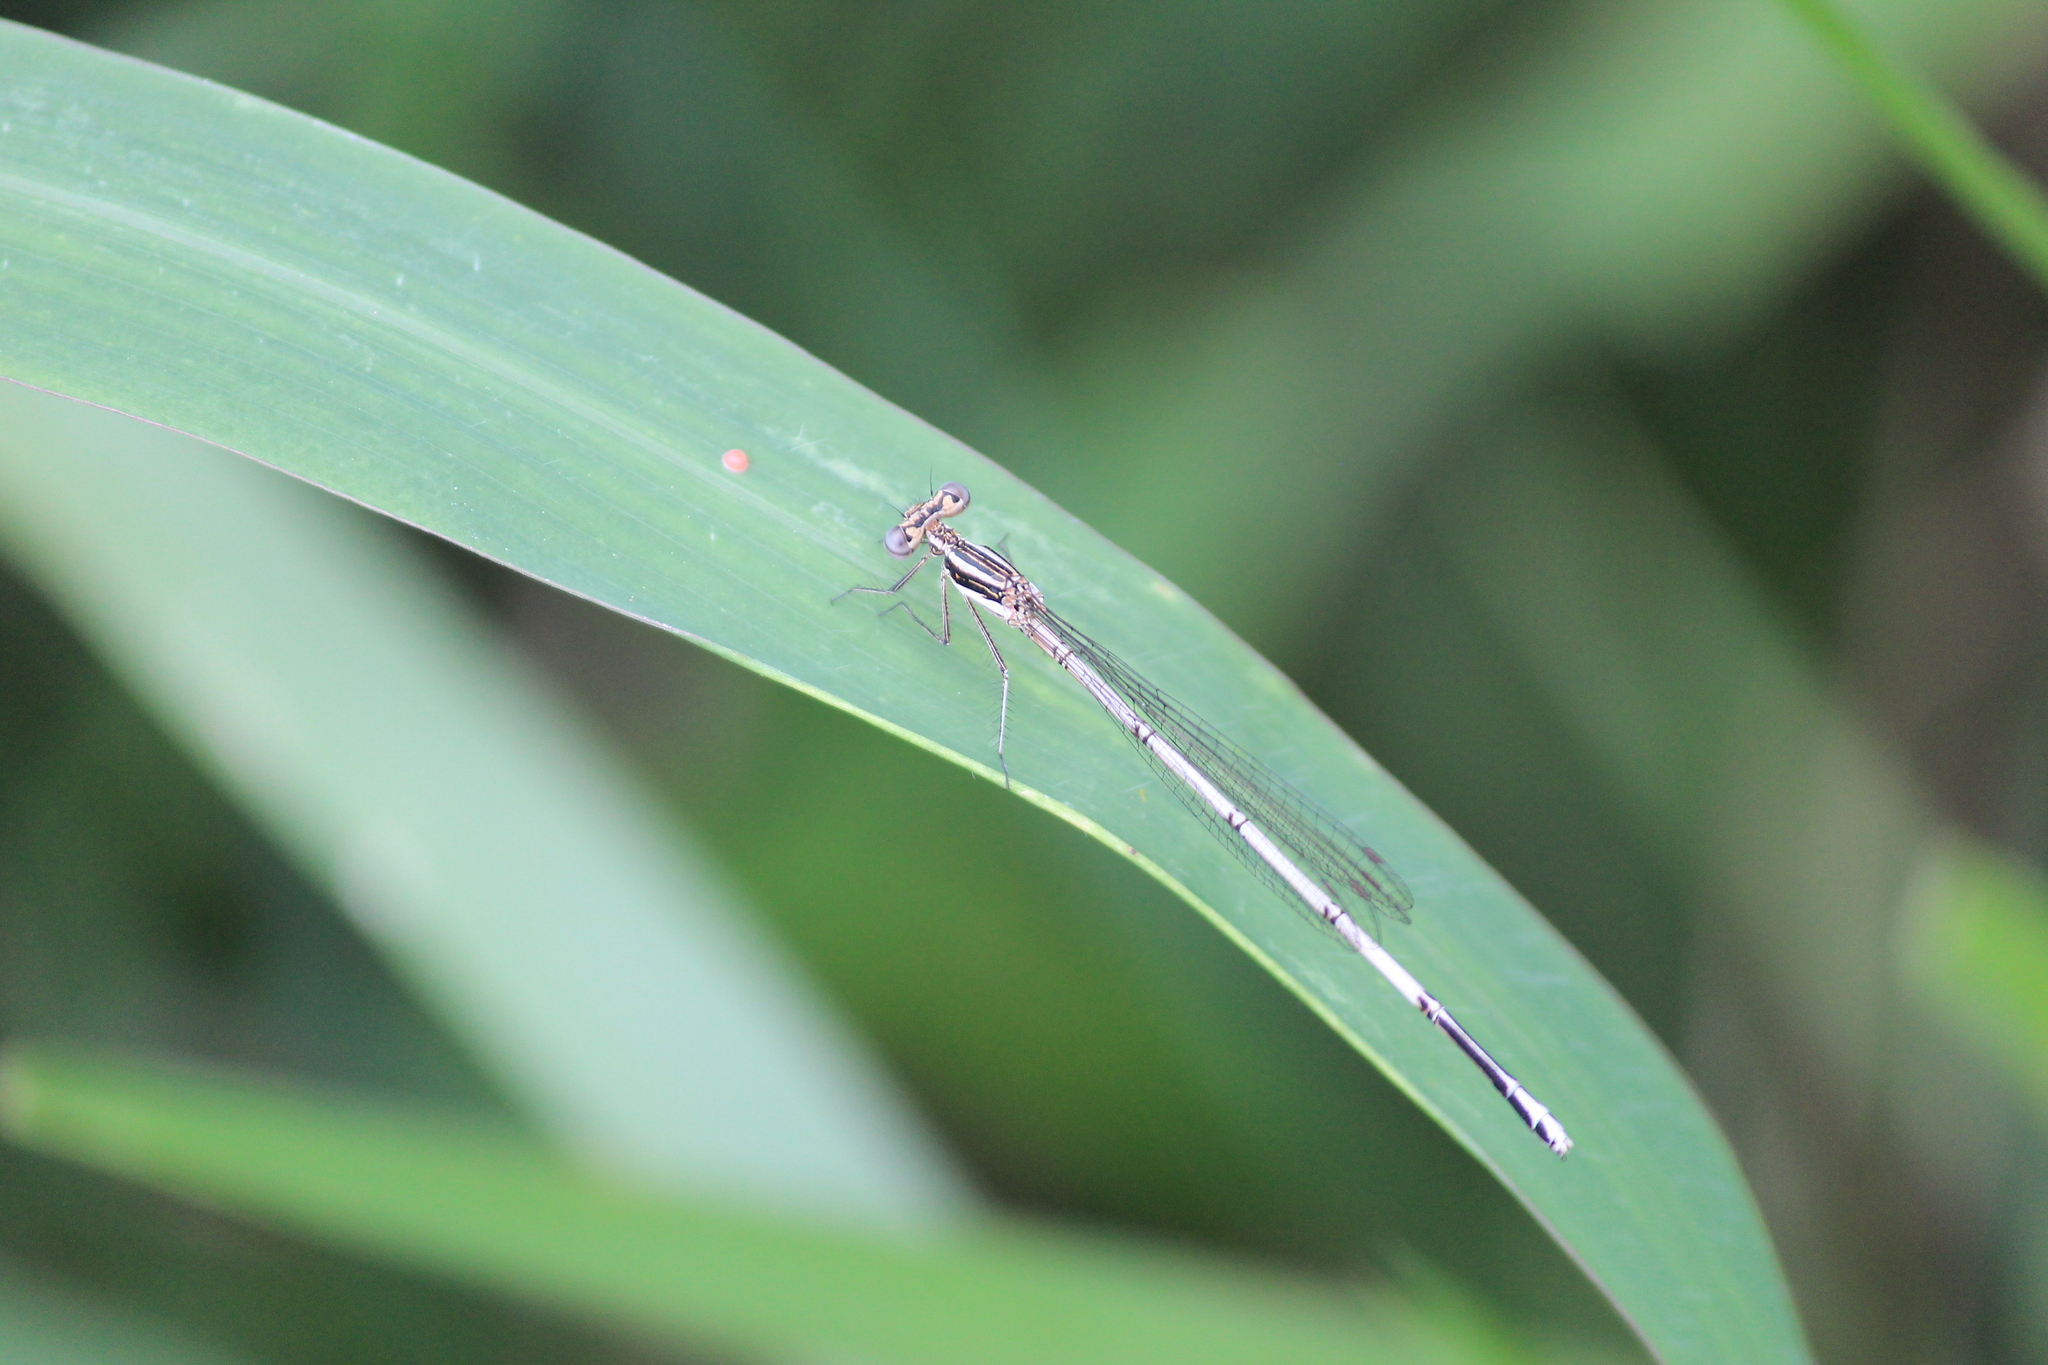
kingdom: Animalia
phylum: Arthropoda
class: Insecta
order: Odonata
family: Platycnemididae
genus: Elattoneura
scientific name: Elattoneura glauca
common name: Common threadtail
